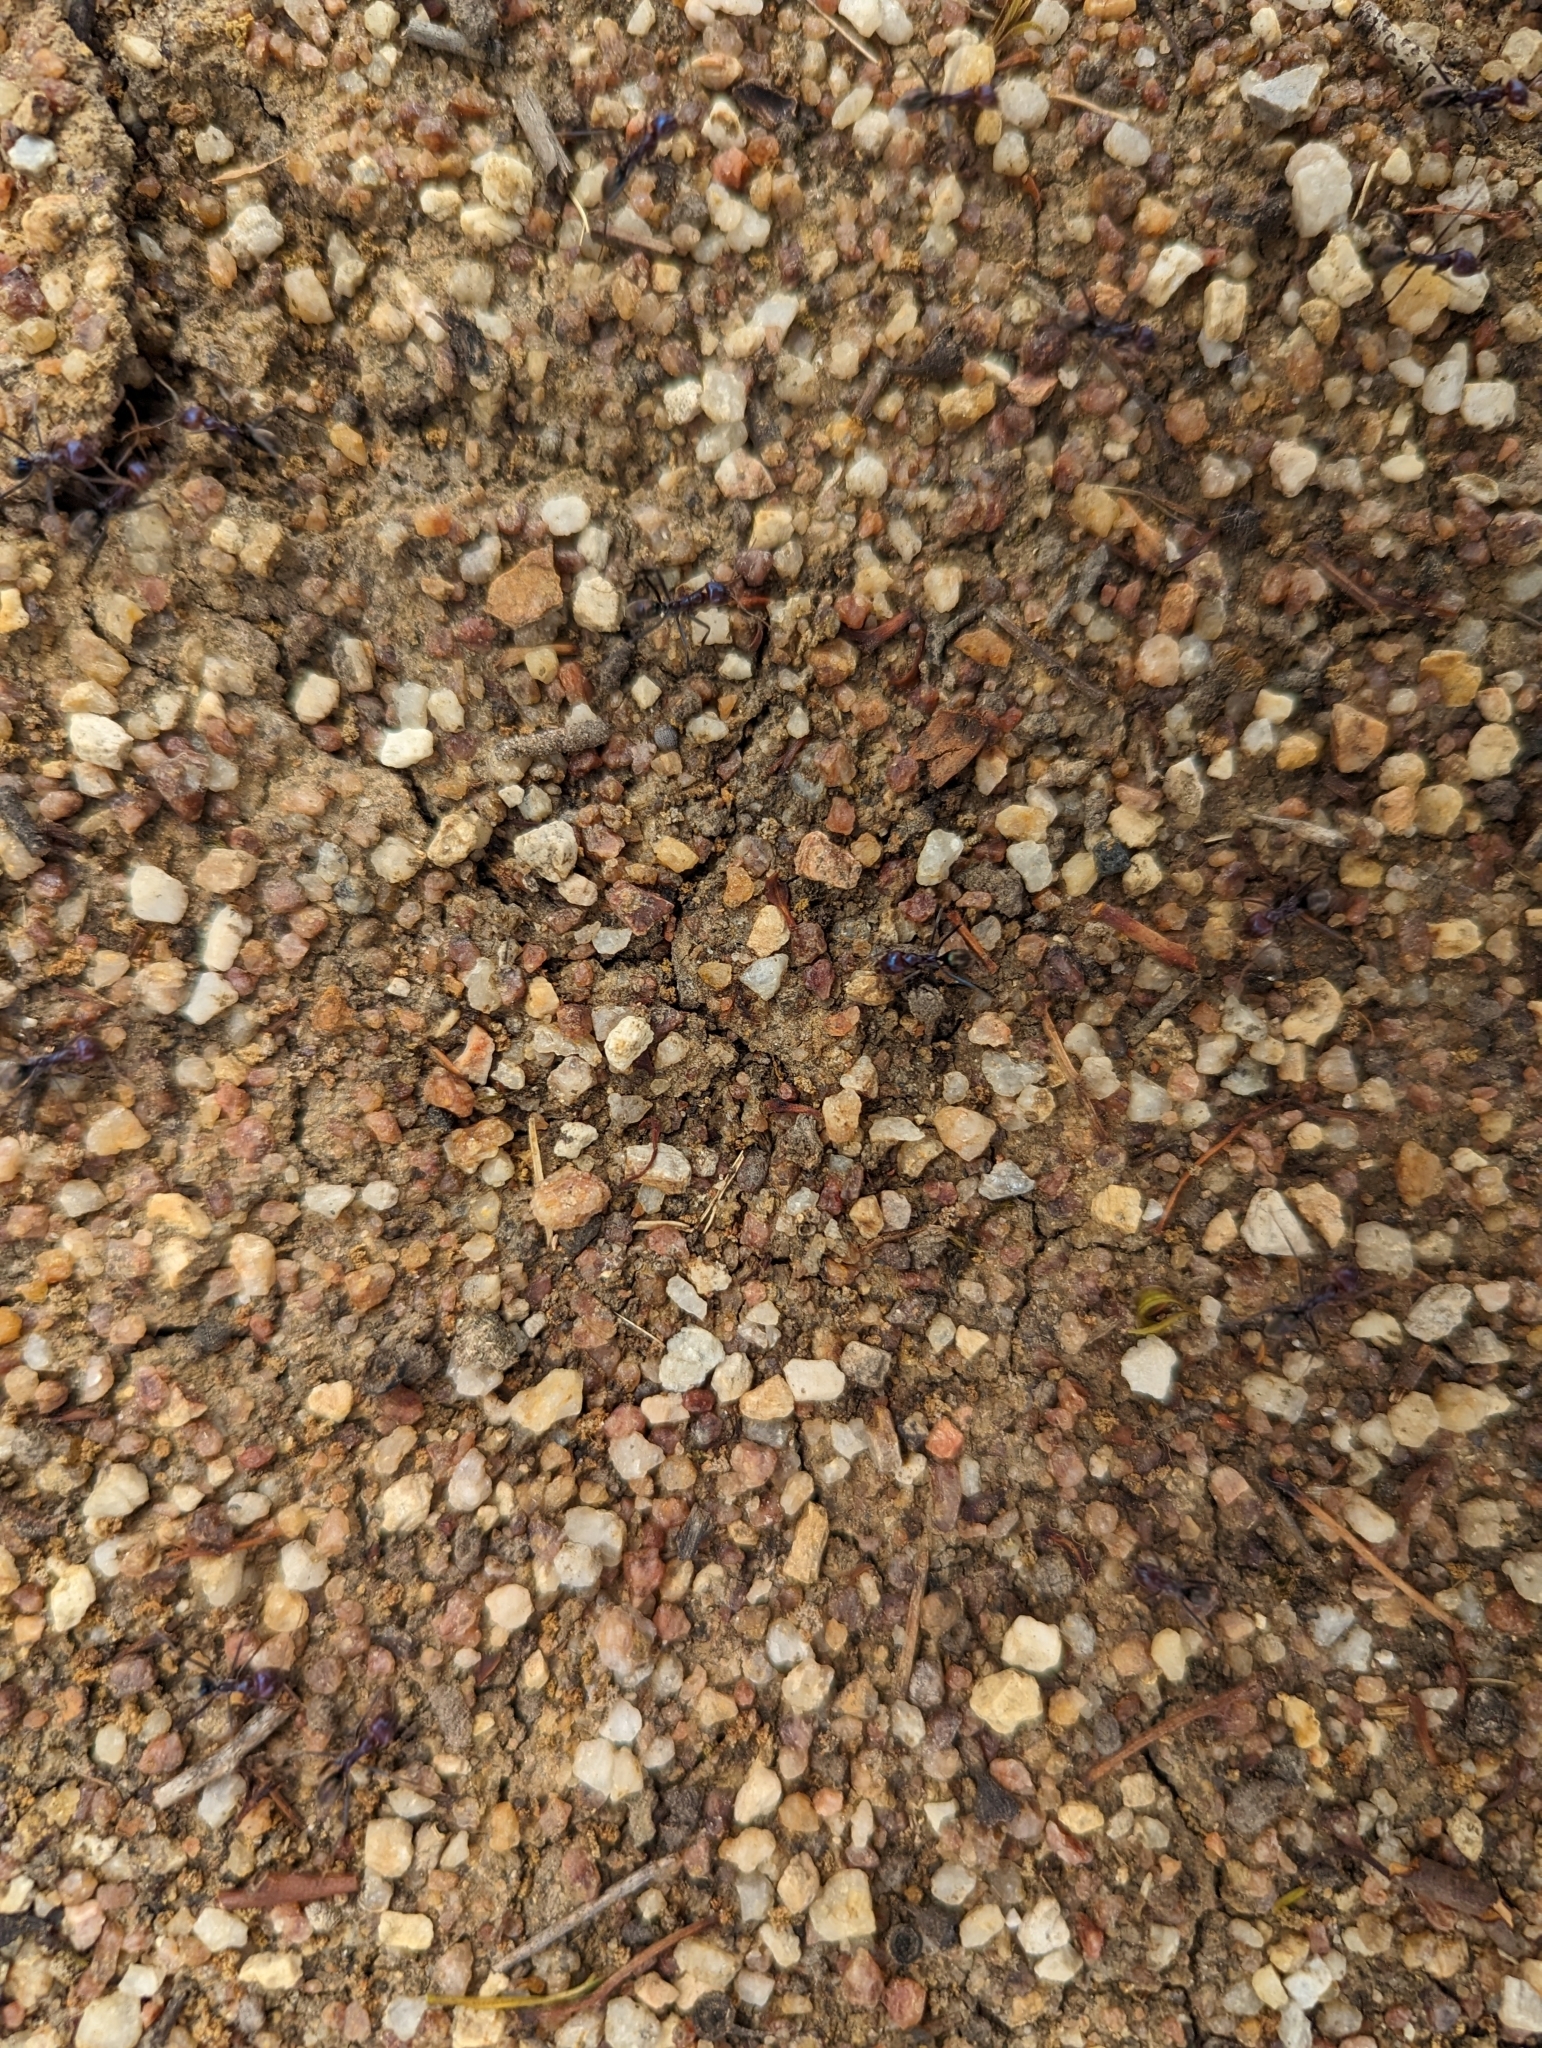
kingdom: Animalia
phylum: Arthropoda
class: Insecta
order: Hymenoptera
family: Formicidae
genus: Iridomyrmex
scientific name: Iridomyrmex purpureus
